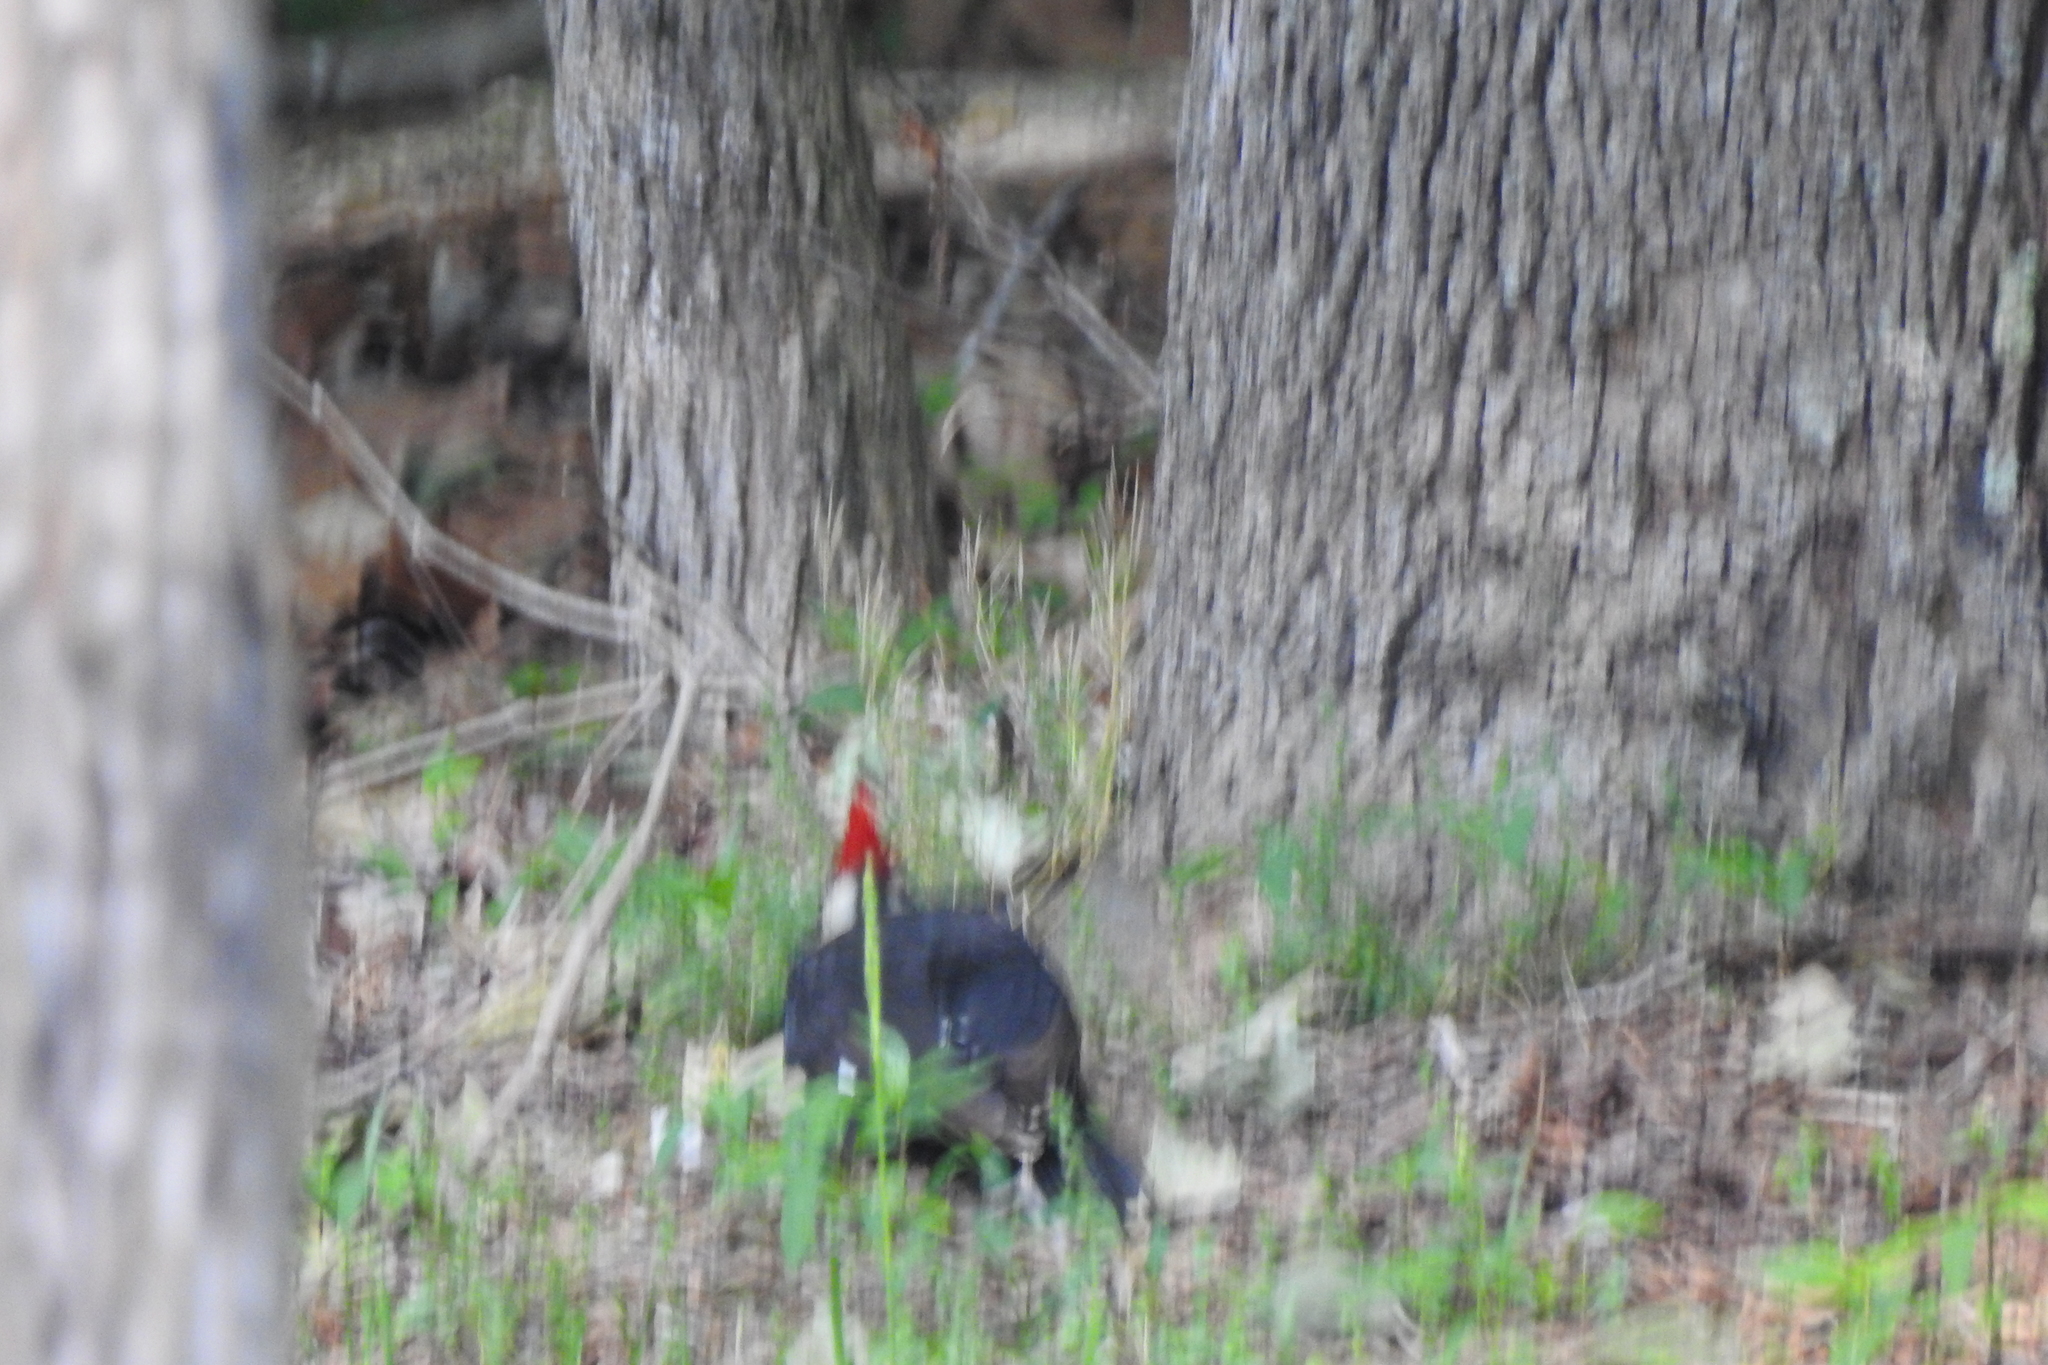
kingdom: Animalia
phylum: Chordata
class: Aves
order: Piciformes
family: Picidae
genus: Dryocopus
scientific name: Dryocopus pileatus
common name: Pileated woodpecker
